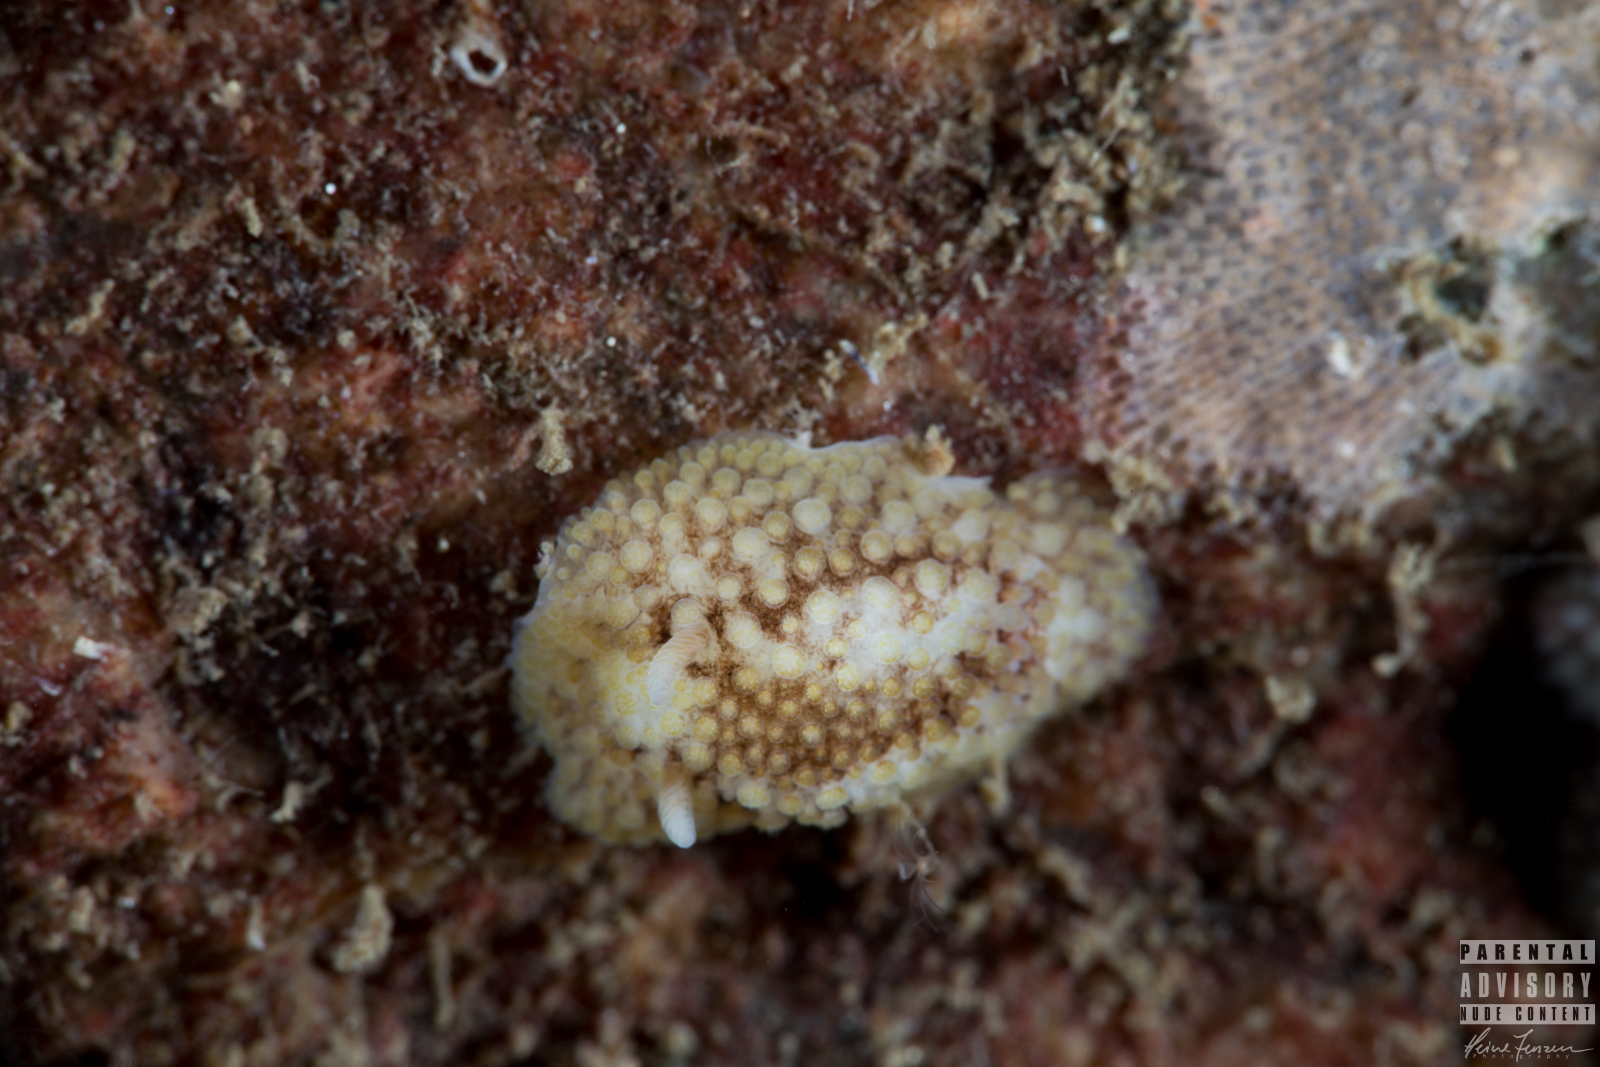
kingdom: Animalia
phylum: Mollusca
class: Gastropoda
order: Nudibranchia
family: Onchidorididae
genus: Onchidoris
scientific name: Onchidoris bilamellata
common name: Barnacle-eating onchidoris
